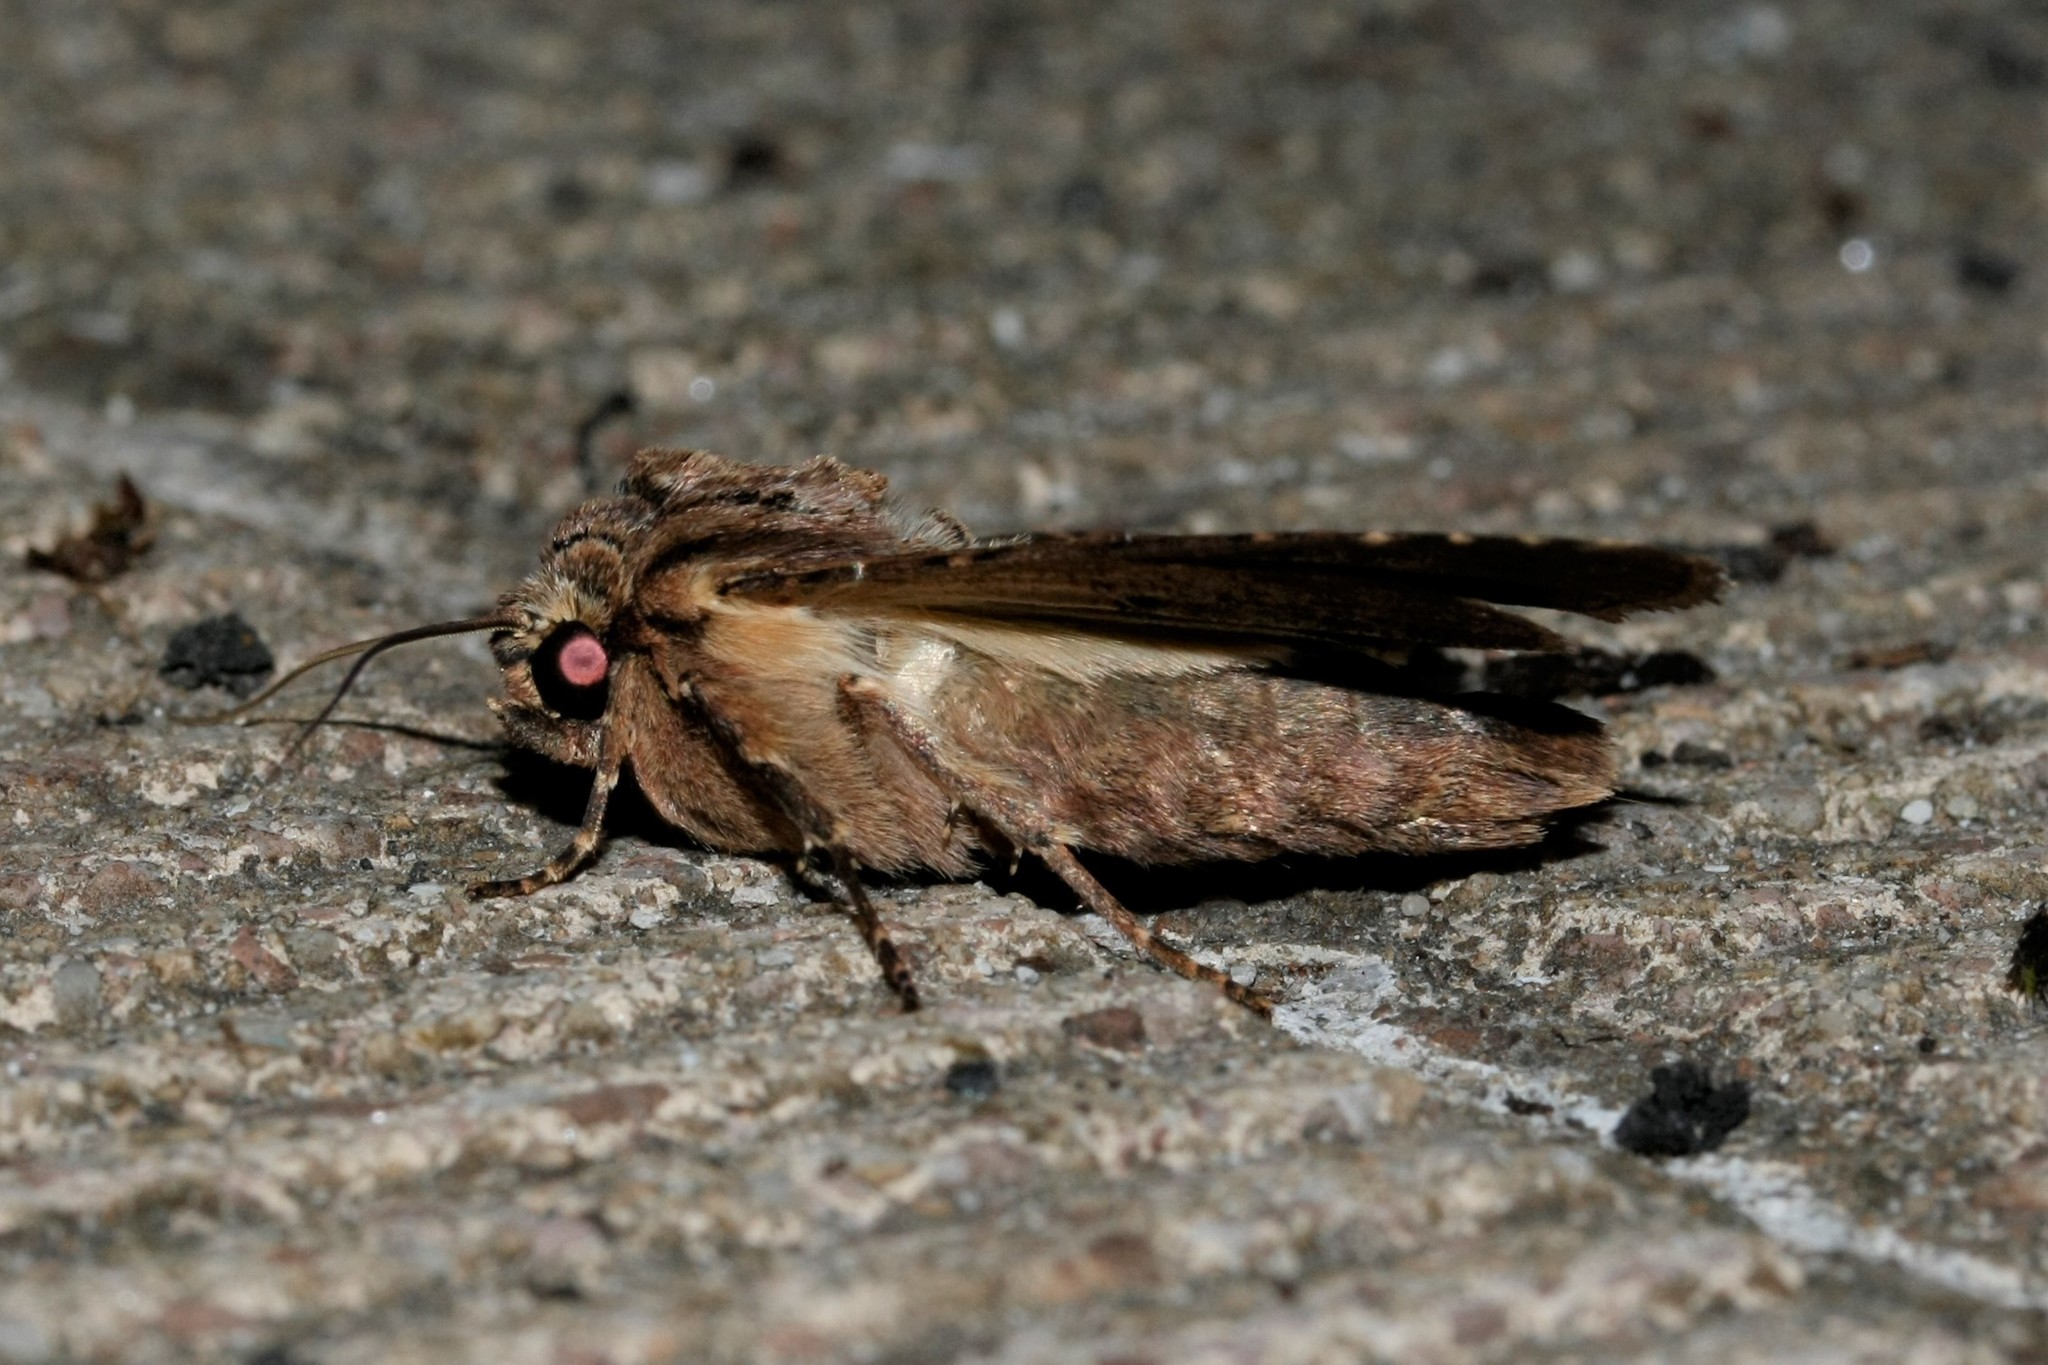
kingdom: Animalia
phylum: Arthropoda
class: Insecta
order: Lepidoptera
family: Noctuidae
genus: Apamea
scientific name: Apamea monoglypha
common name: Dark arches
